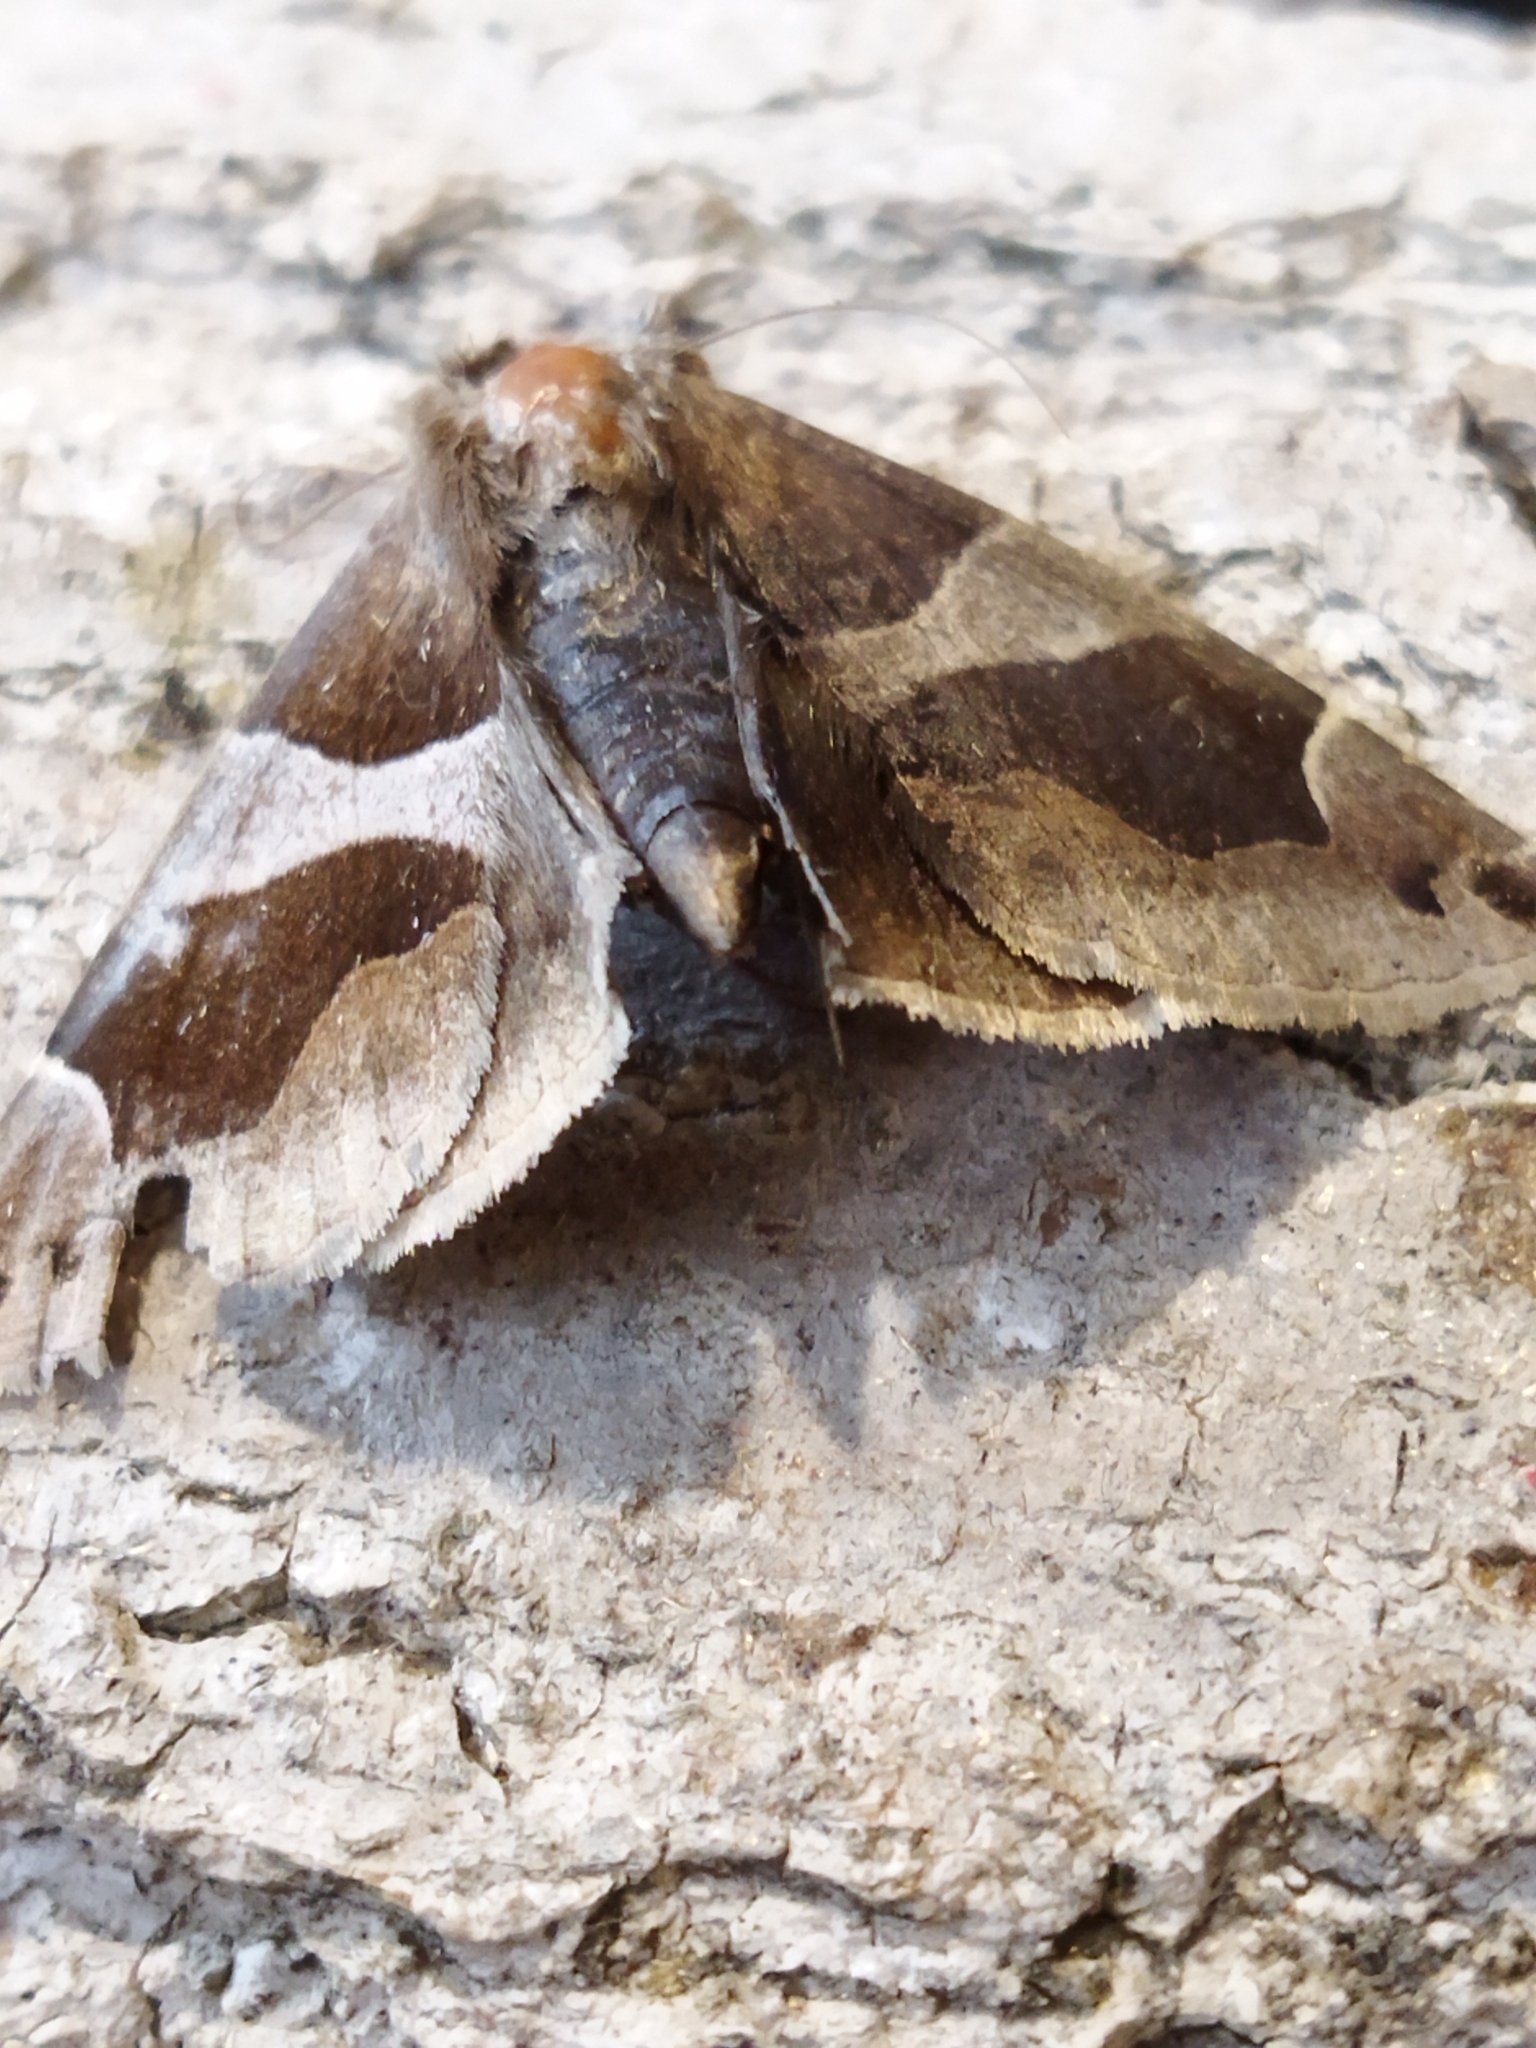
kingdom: Animalia
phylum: Arthropoda
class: Insecta
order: Lepidoptera
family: Erebidae
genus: Dysgonia
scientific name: Dysgonia algira
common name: Passenger
